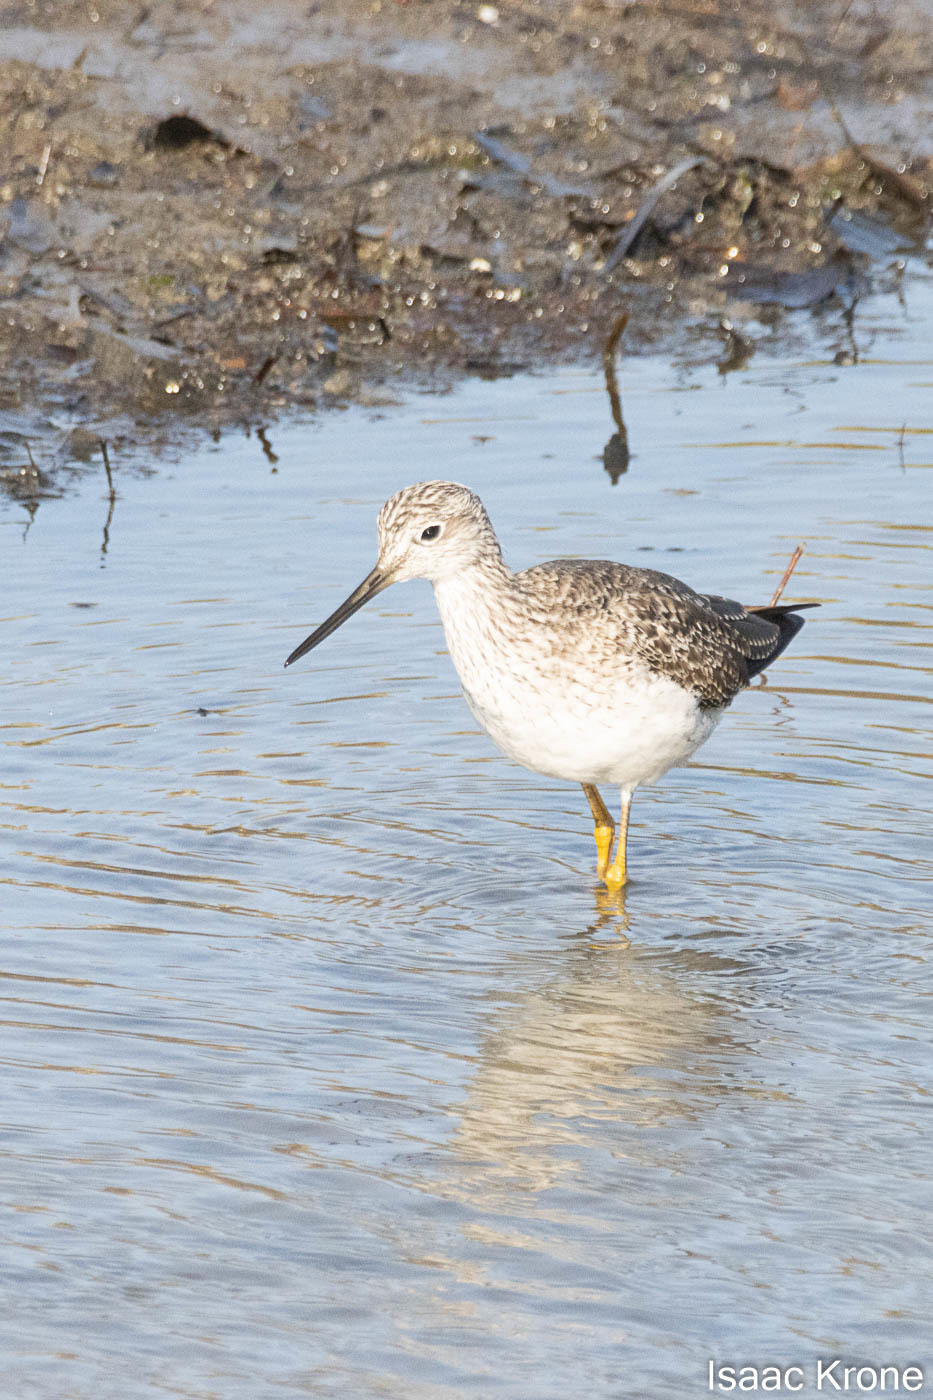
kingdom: Animalia
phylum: Chordata
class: Aves
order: Charadriiformes
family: Scolopacidae
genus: Tringa
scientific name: Tringa melanoleuca
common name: Greater yellowlegs
